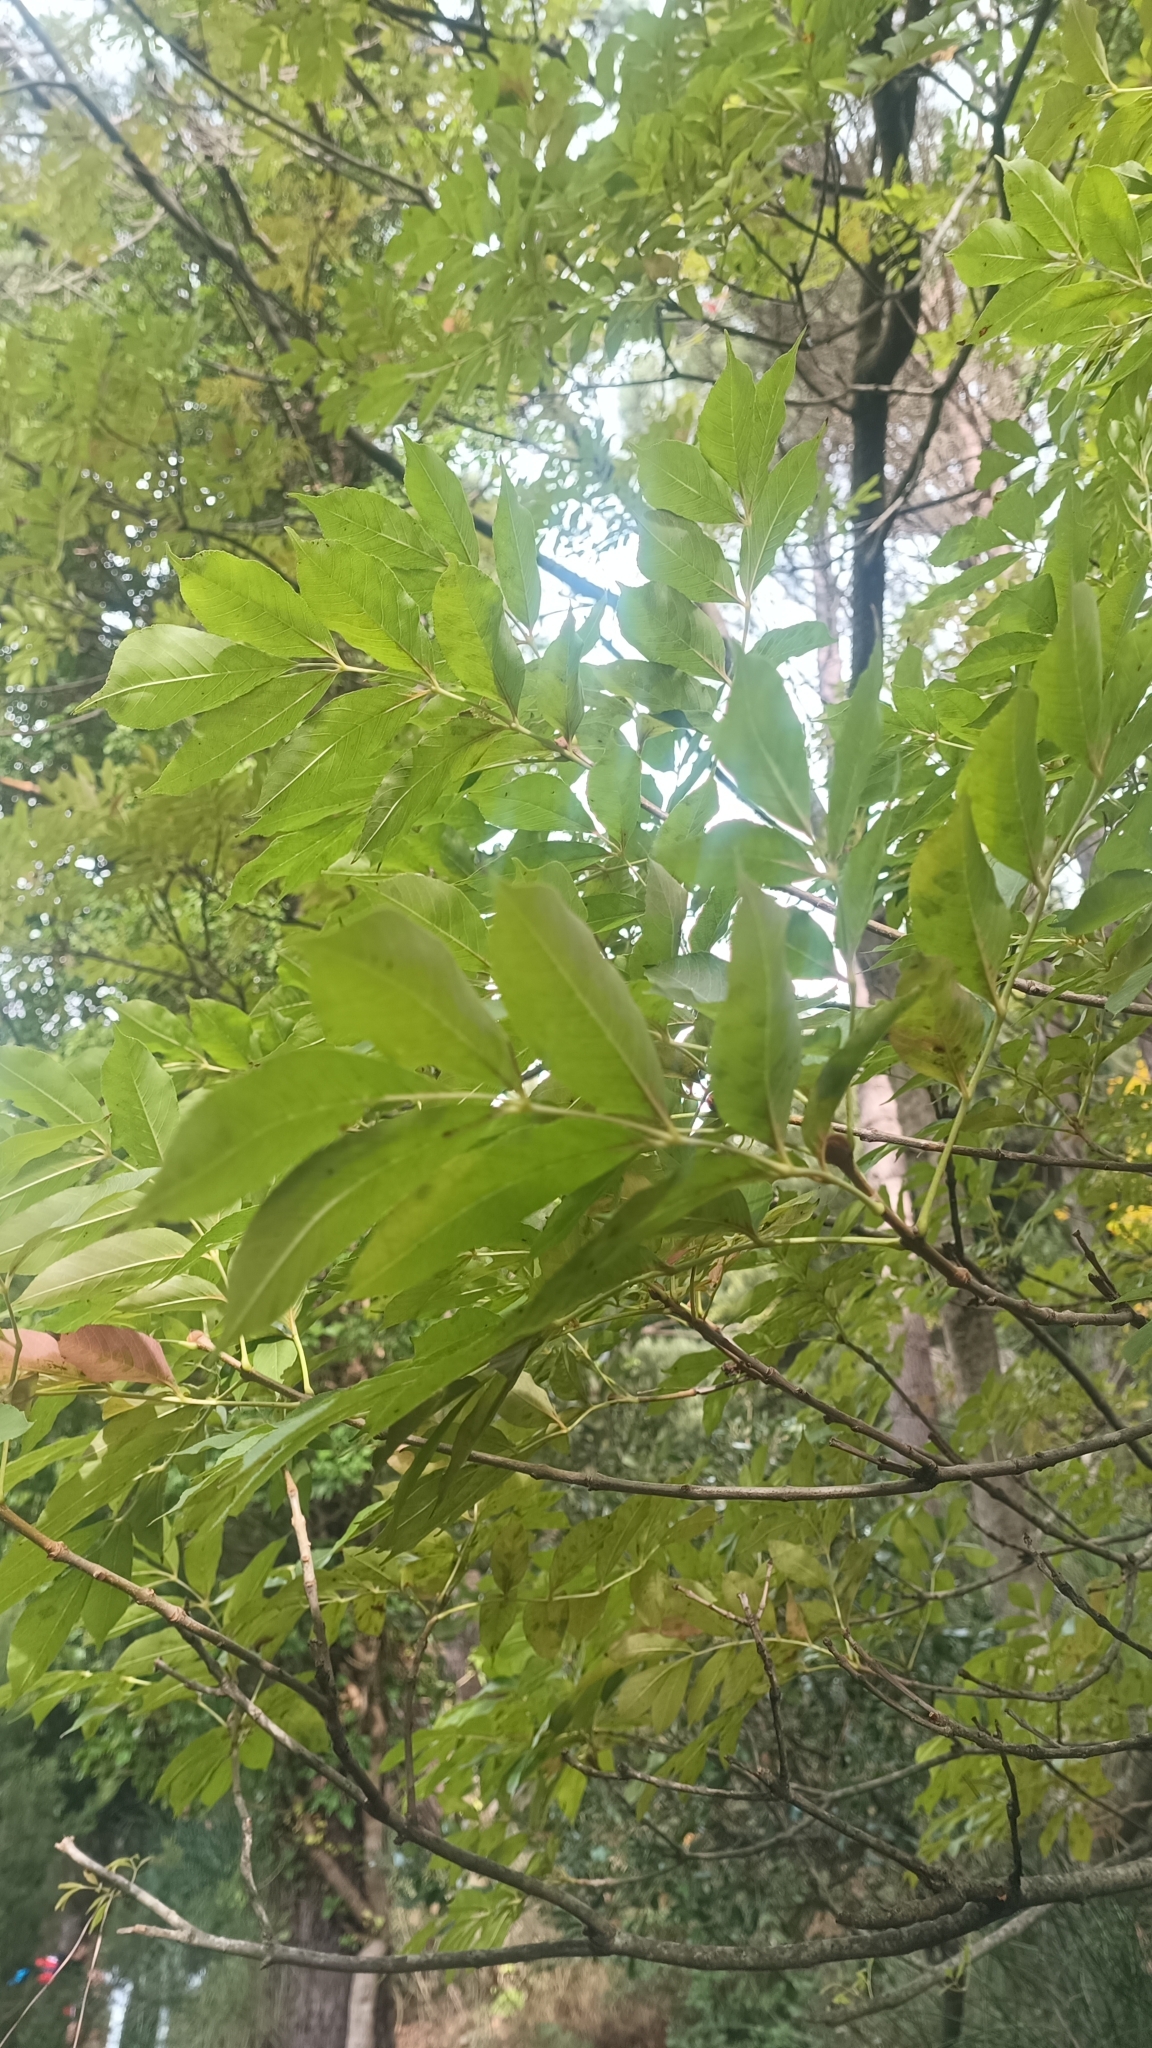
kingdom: Plantae
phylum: Tracheophyta
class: Magnoliopsida
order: Lamiales
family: Oleaceae
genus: Fraxinus
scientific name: Fraxinus ornus
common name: Manna ash
